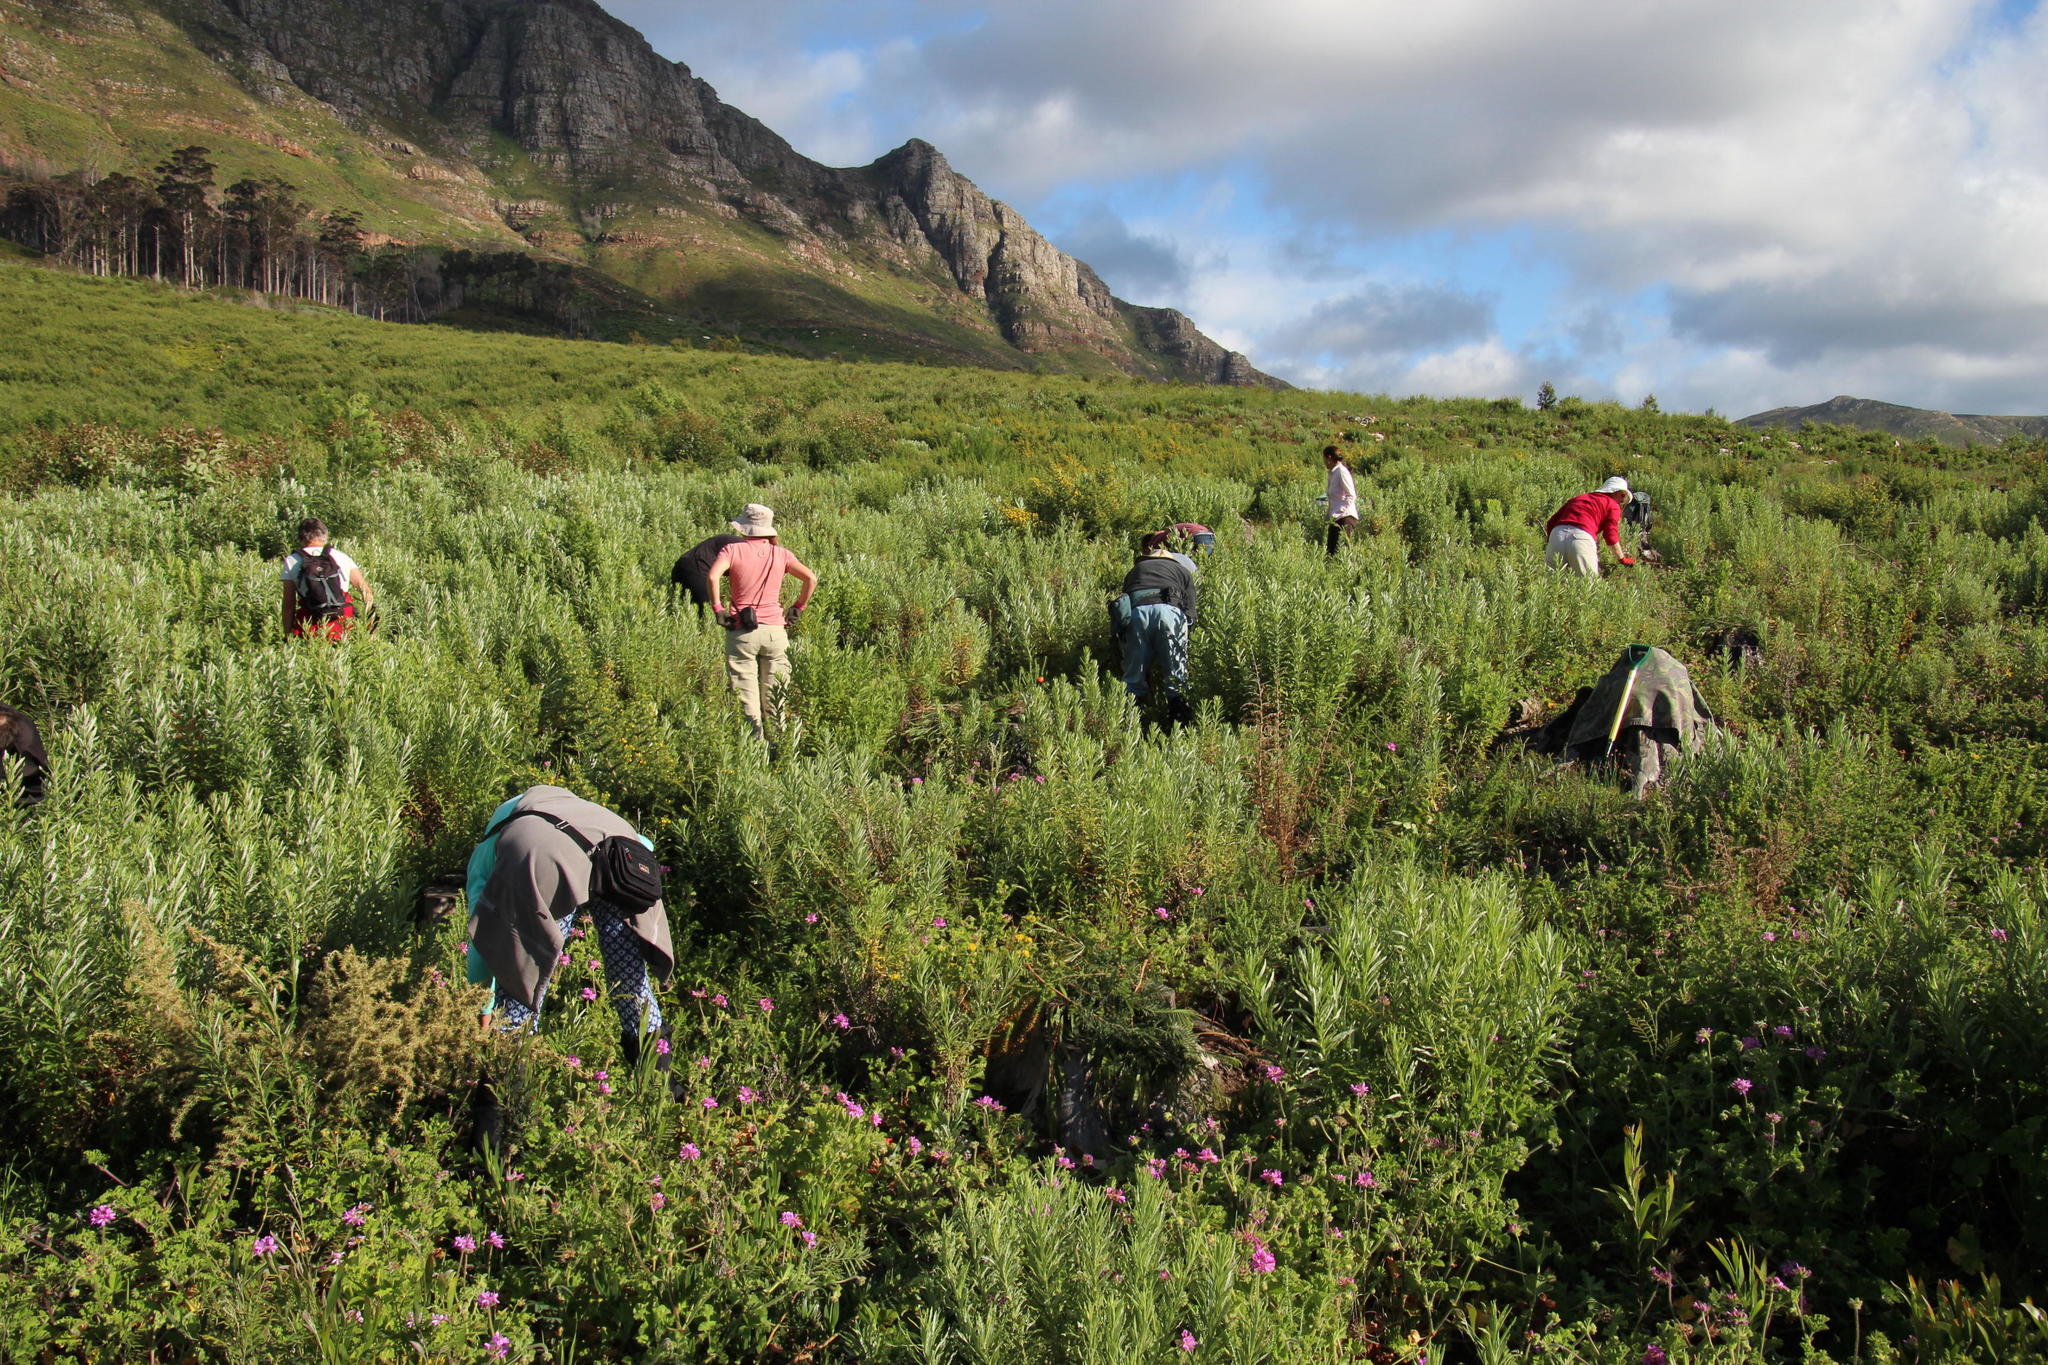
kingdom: Plantae
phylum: Tracheophyta
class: Magnoliopsida
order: Geraniales
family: Geraniaceae
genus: Pelargonium
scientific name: Pelargonium capitatum
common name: Rose scented geranium
